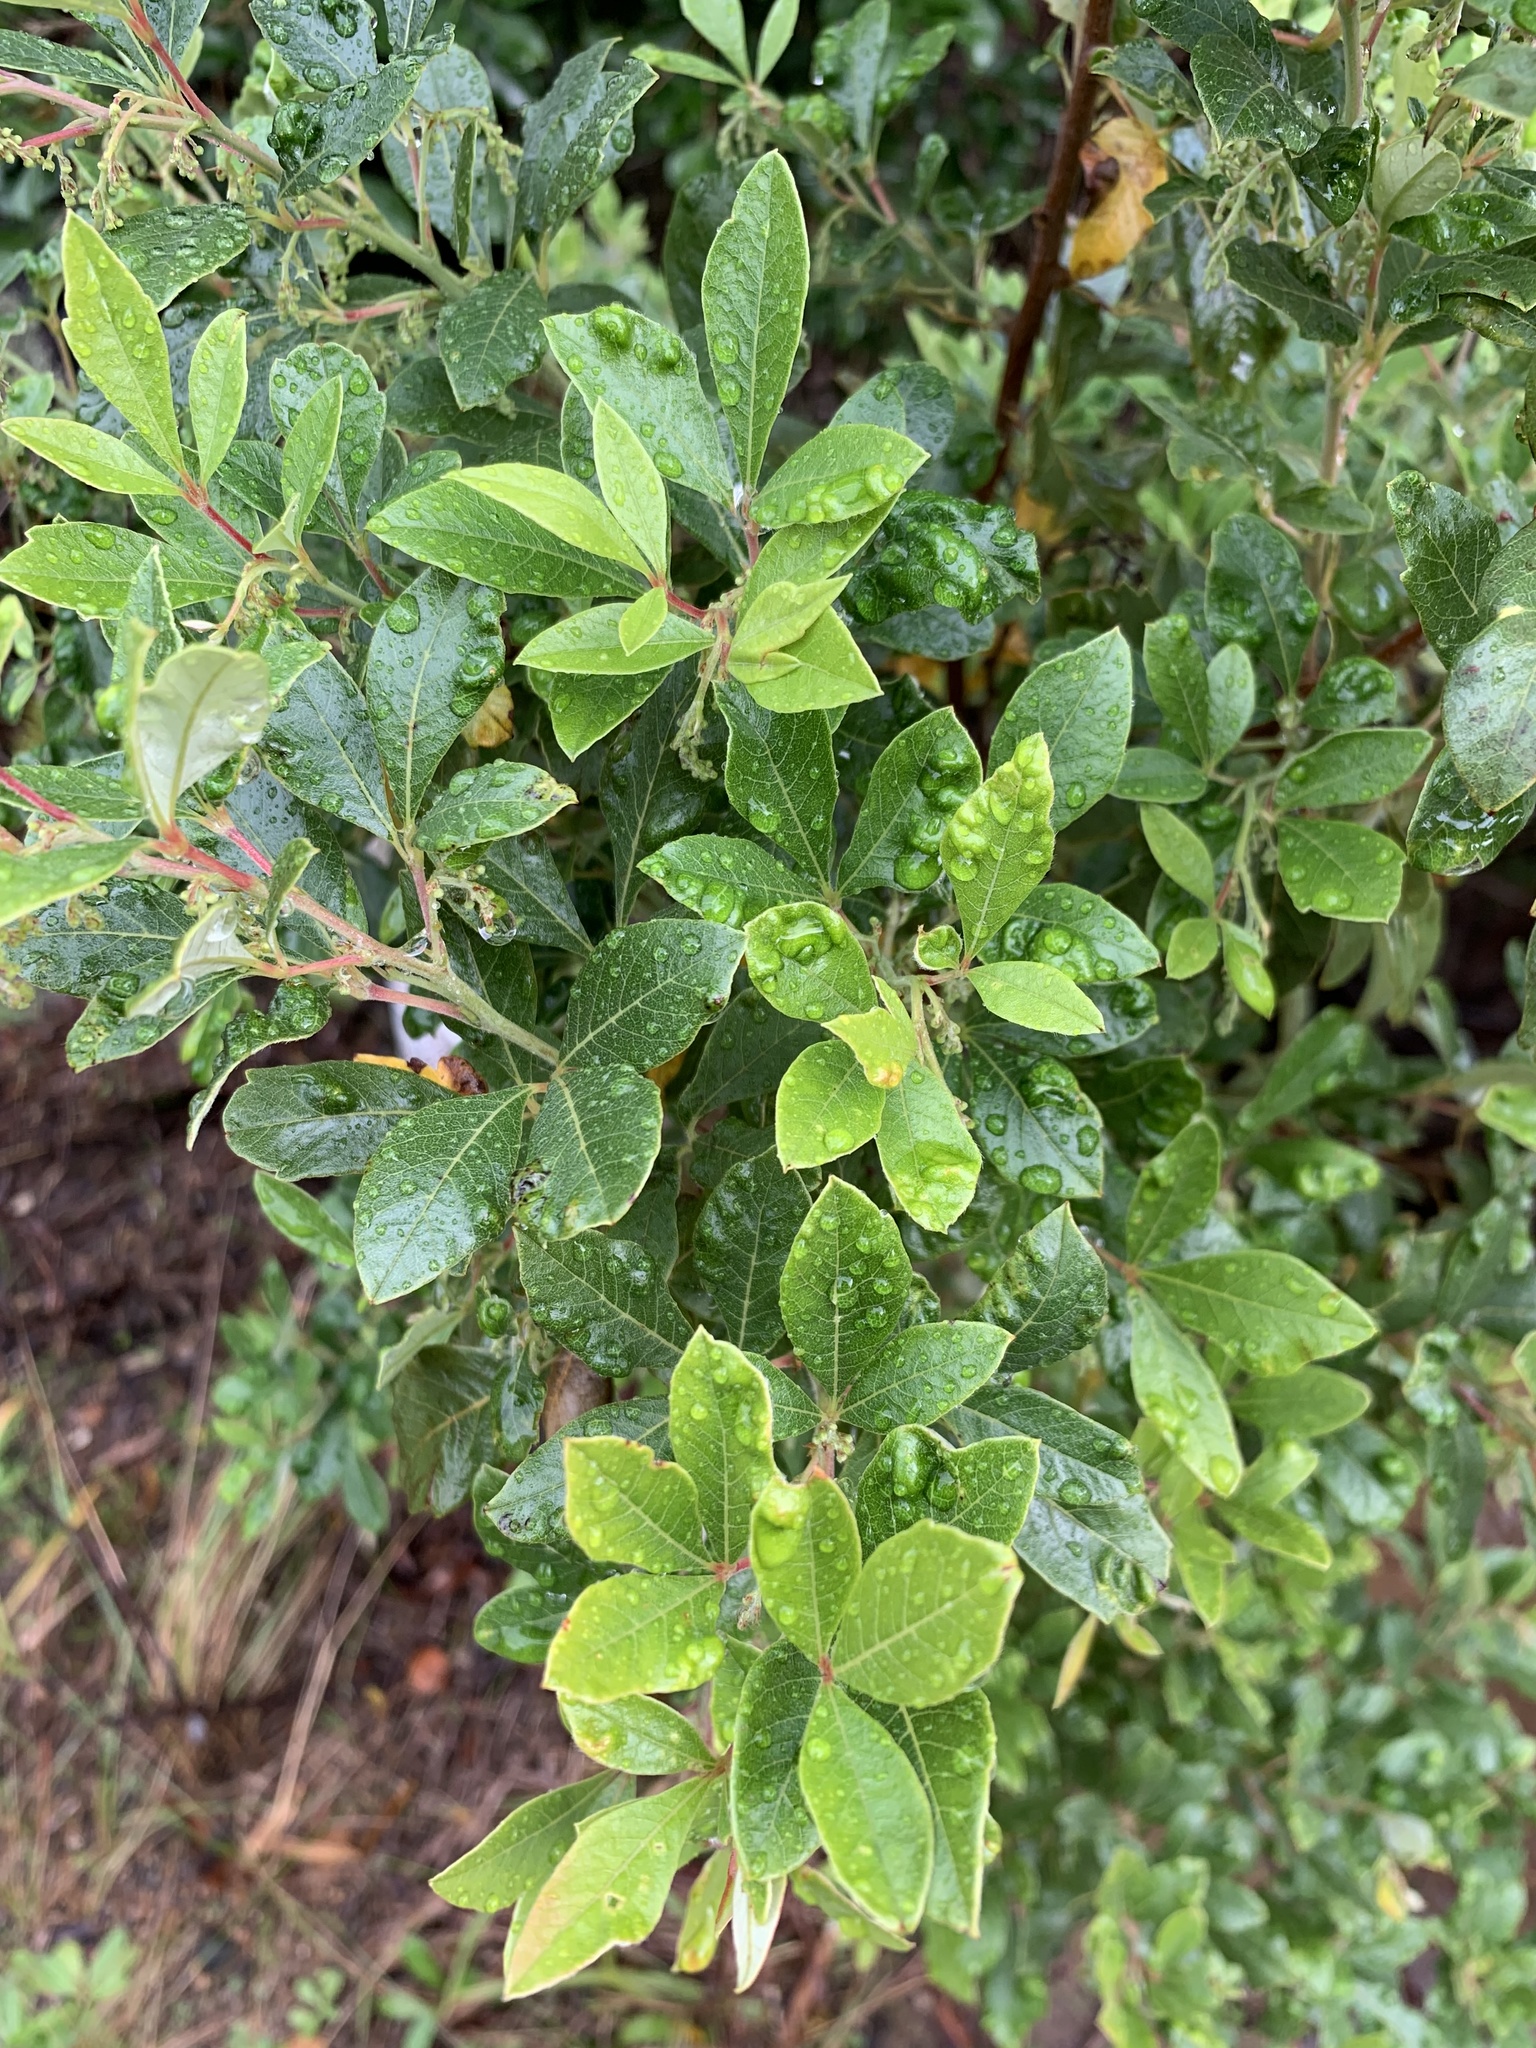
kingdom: Plantae
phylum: Tracheophyta
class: Magnoliopsida
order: Sapindales
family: Anacardiaceae
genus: Searsia
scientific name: Searsia tomentosa
